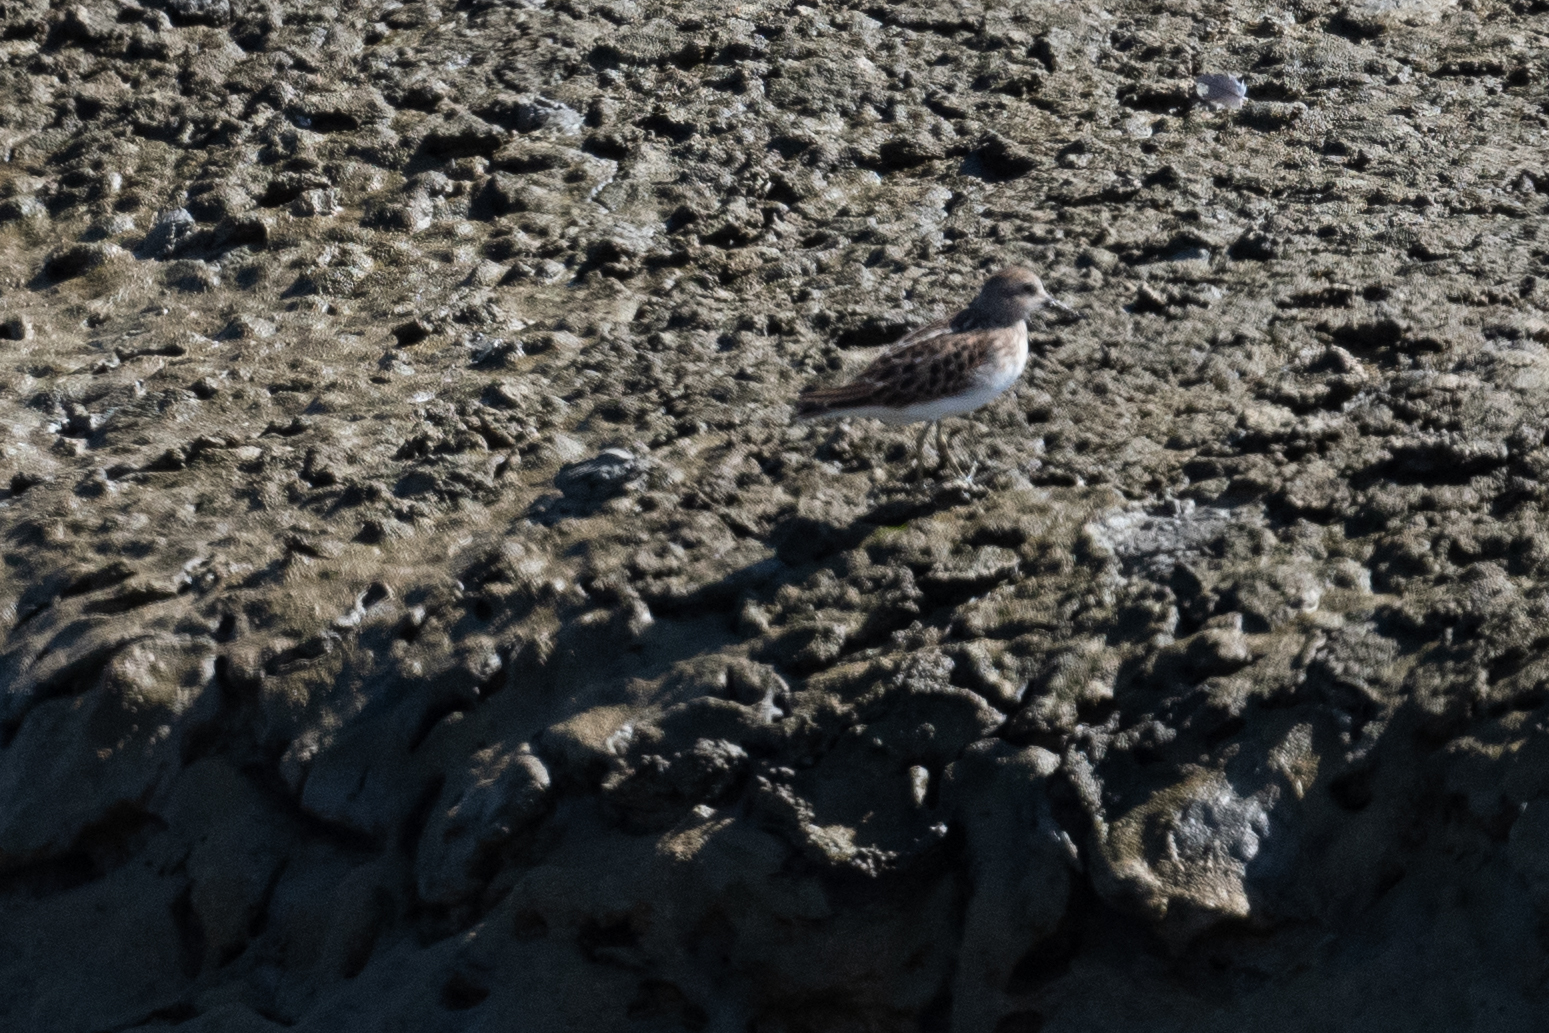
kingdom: Animalia
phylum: Chordata
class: Aves
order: Charadriiformes
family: Scolopacidae
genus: Calidris
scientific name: Calidris minutilla
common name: Least sandpiper
